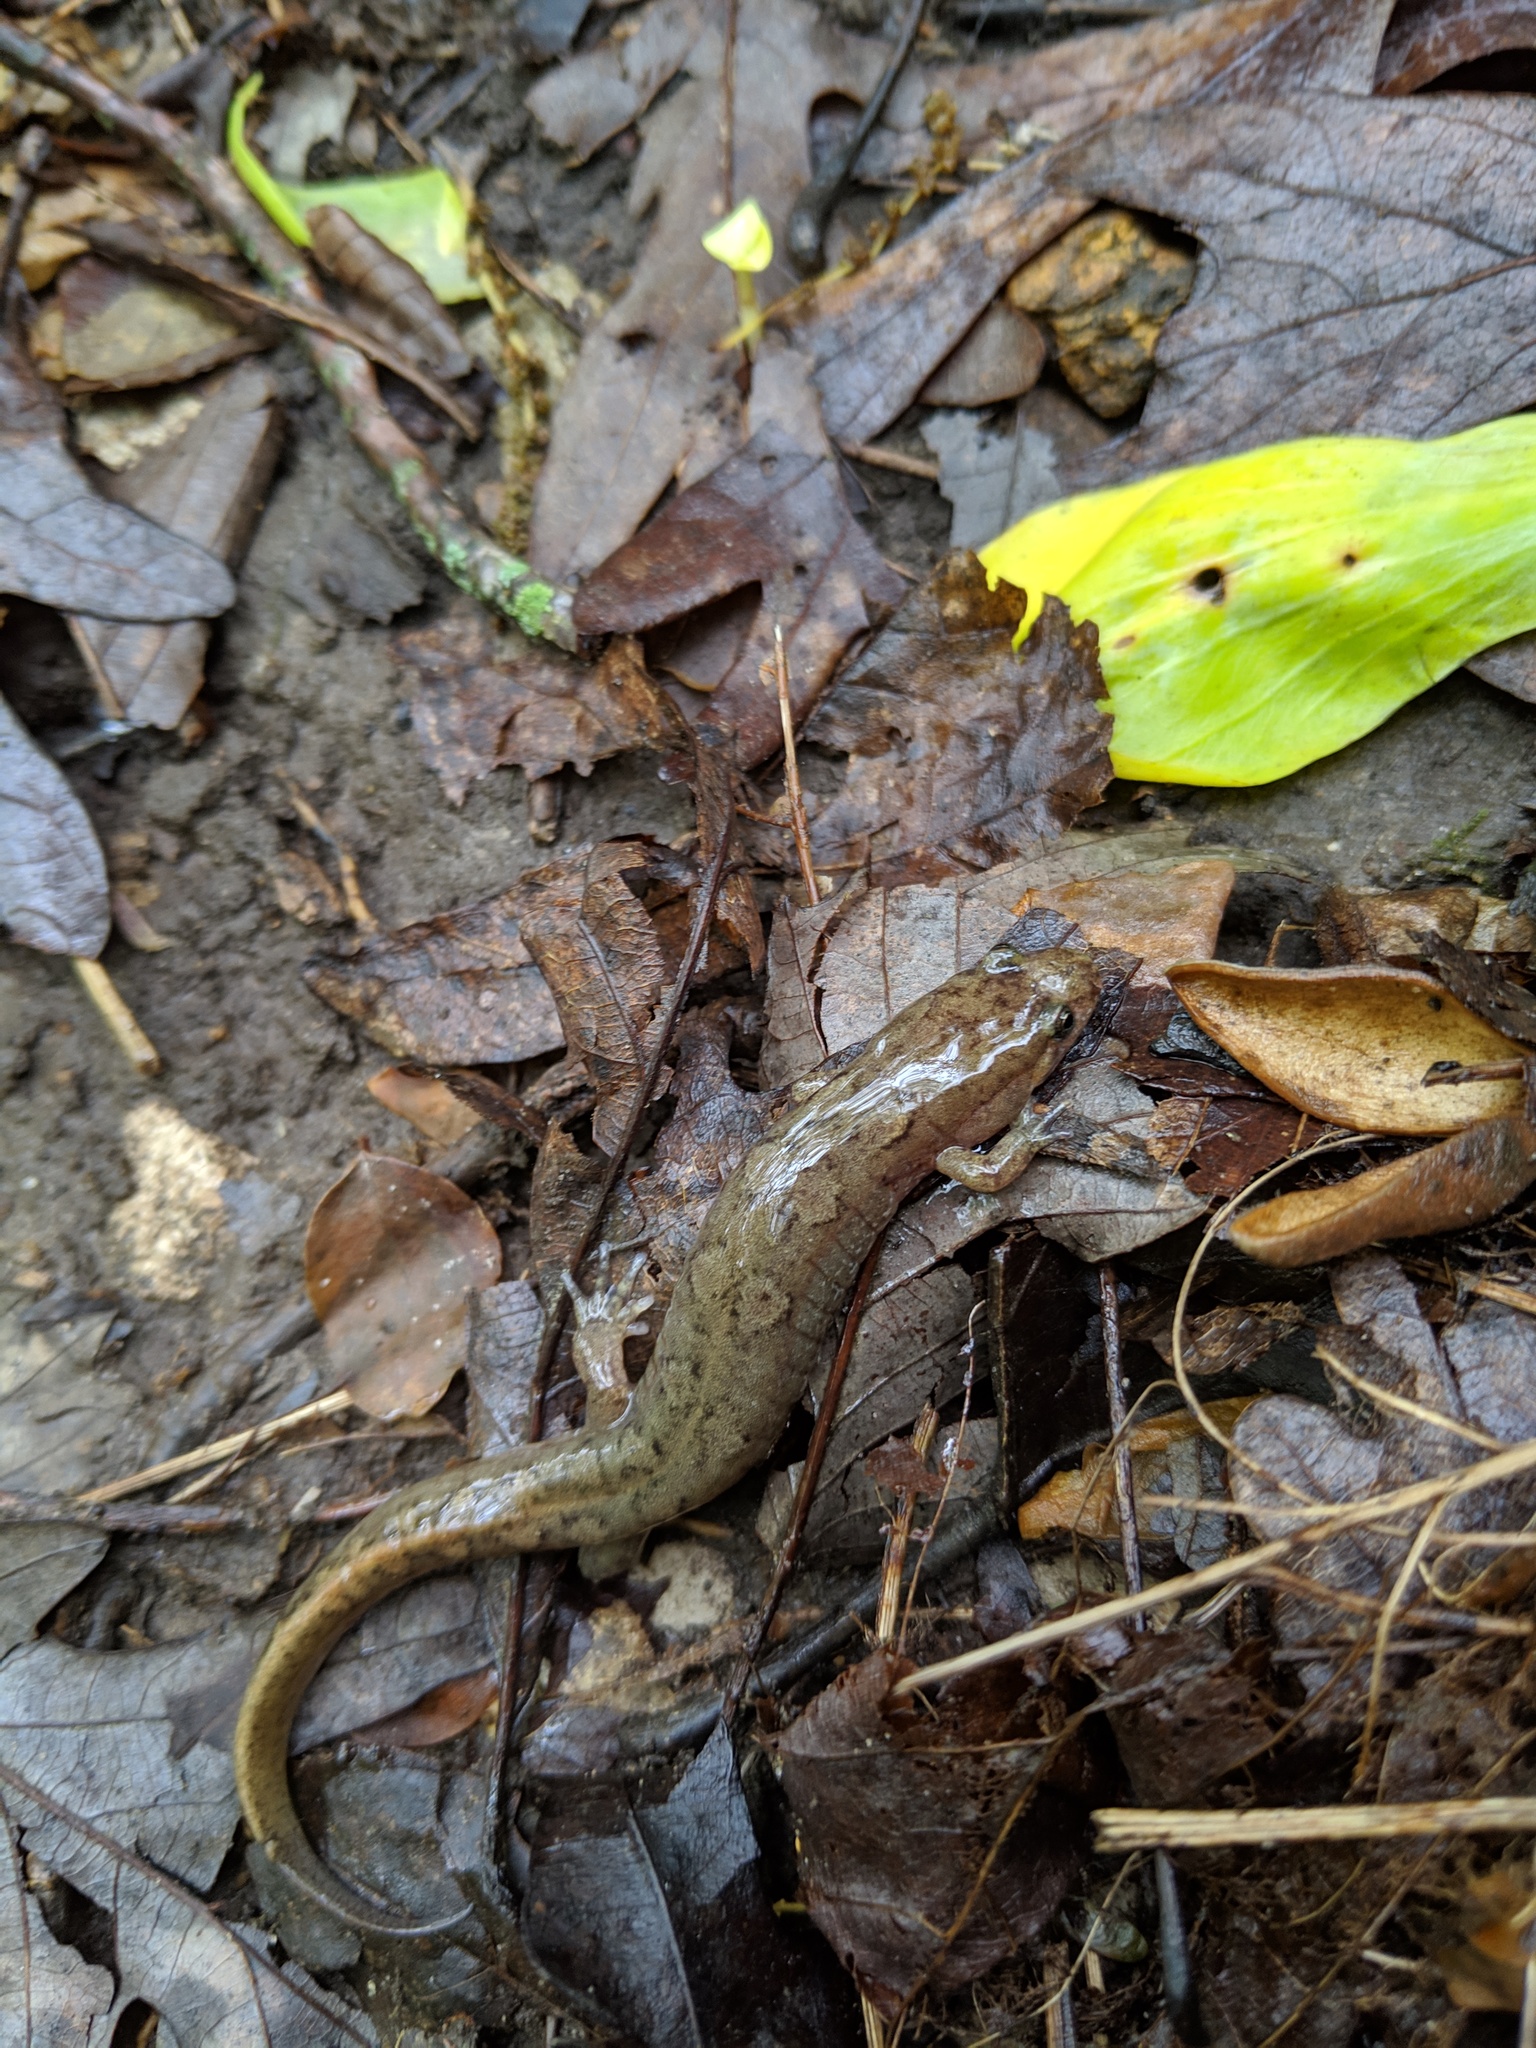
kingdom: Animalia
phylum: Chordata
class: Amphibia
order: Caudata
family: Plethodontidae
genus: Desmognathus
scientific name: Desmognathus conanti
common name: Spotted dusky salamander
